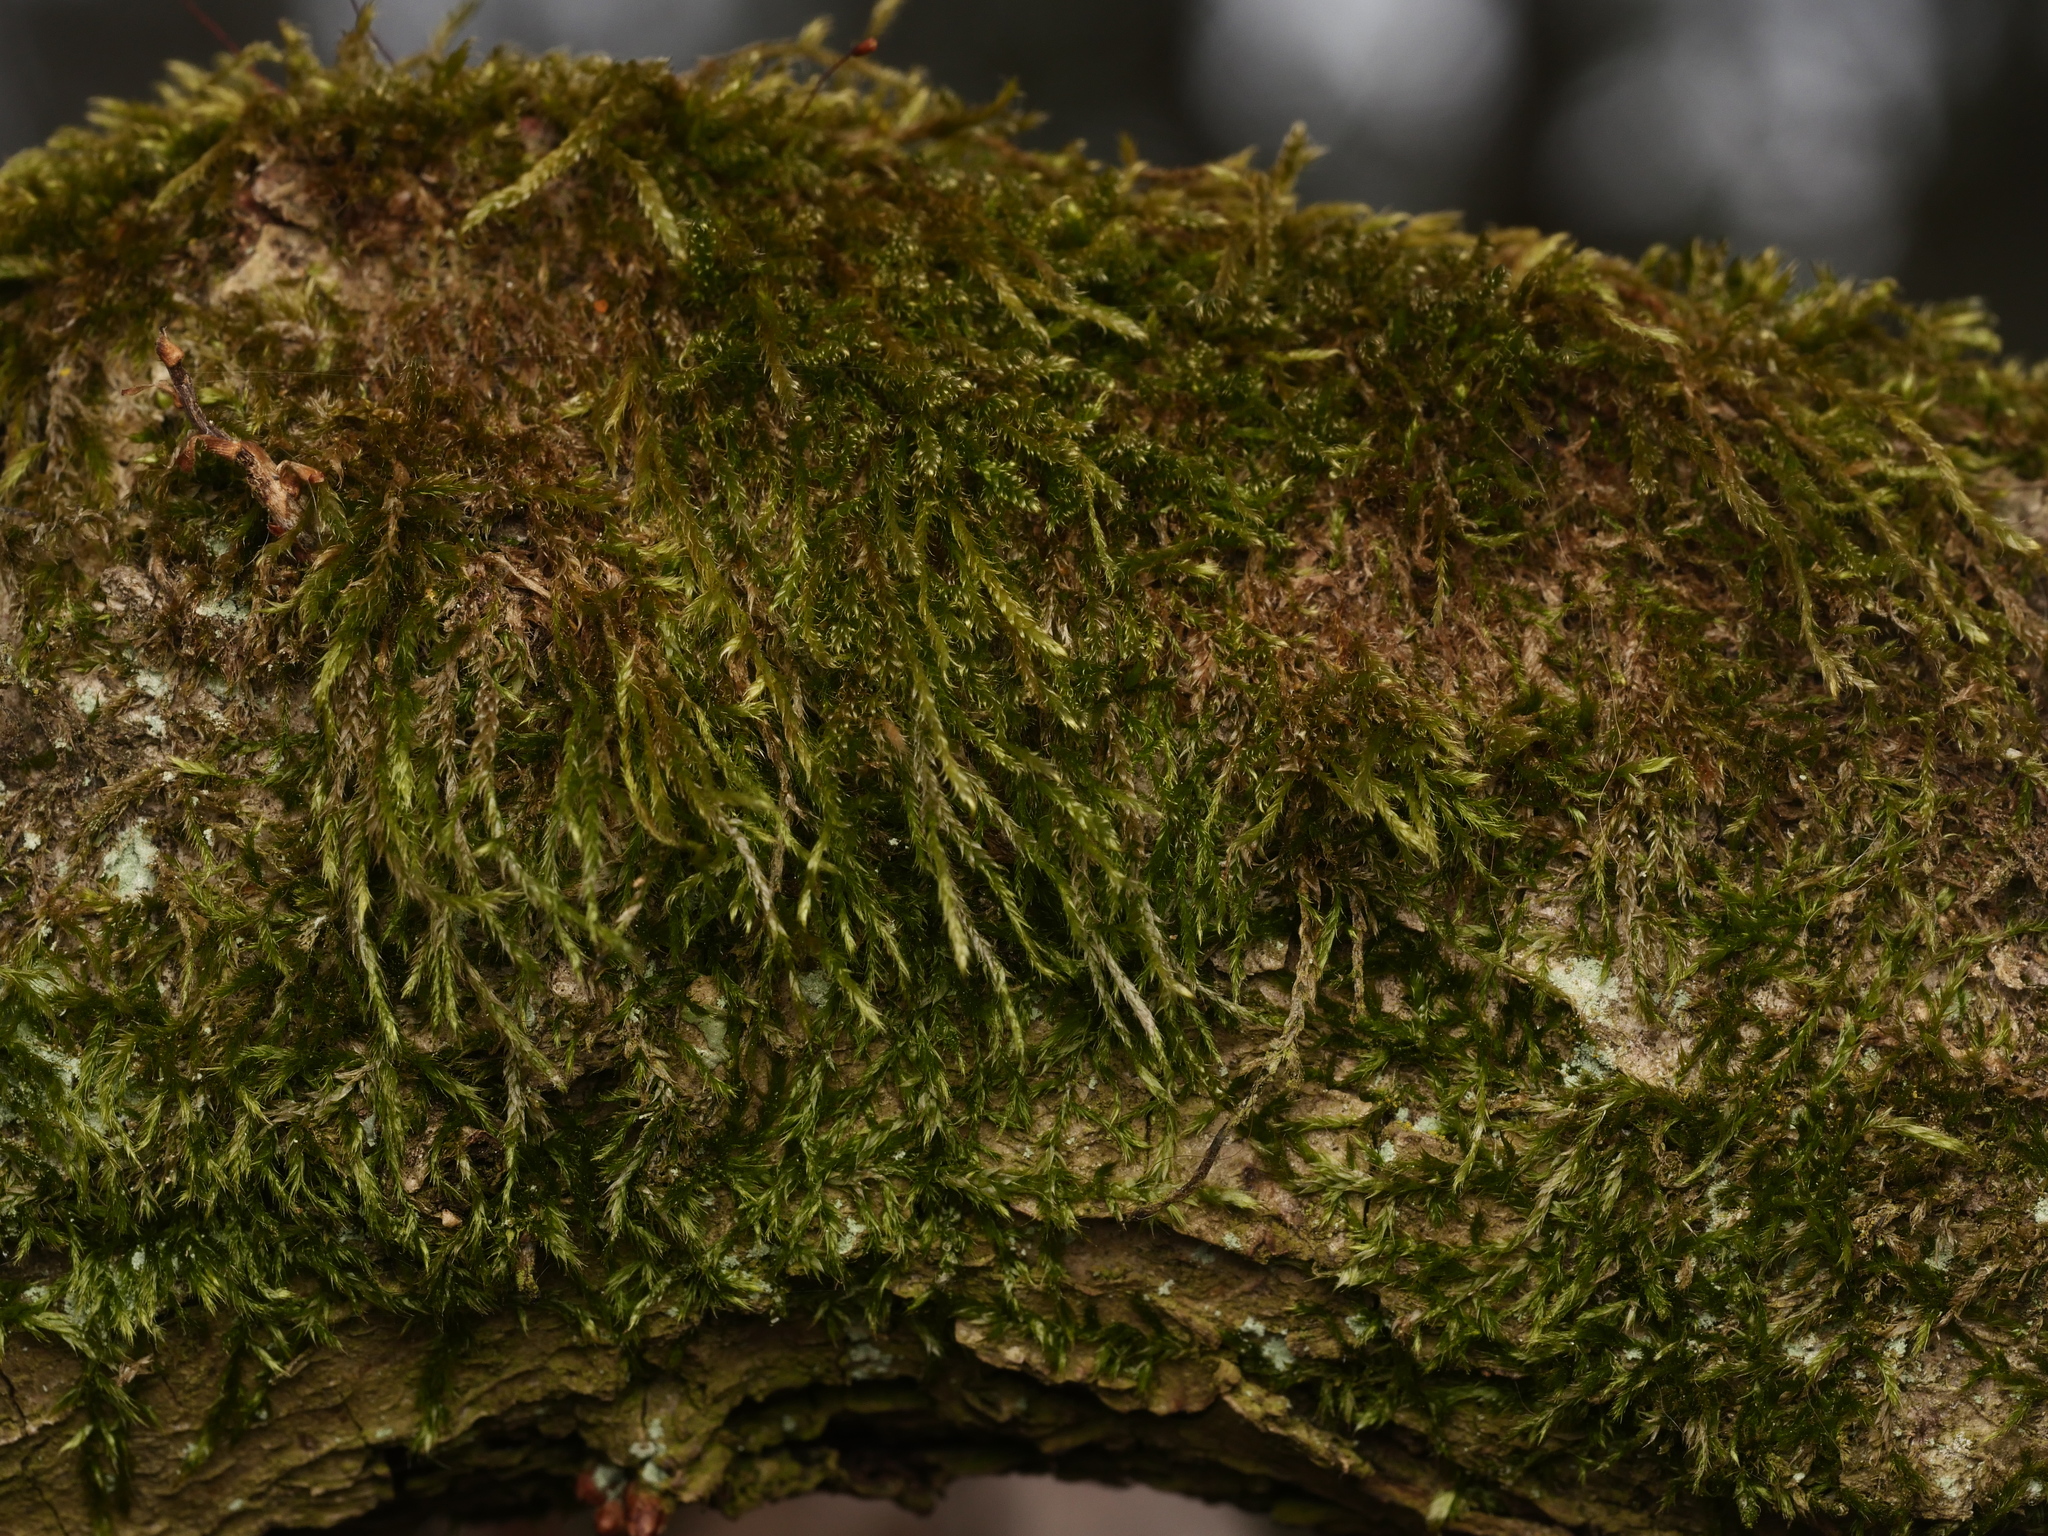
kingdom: Plantae
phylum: Bryophyta
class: Bryopsida
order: Hypnales
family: Hypnaceae
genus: Hypnum
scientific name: Hypnum cupressiforme
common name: Cypress-leaved plait-moss
